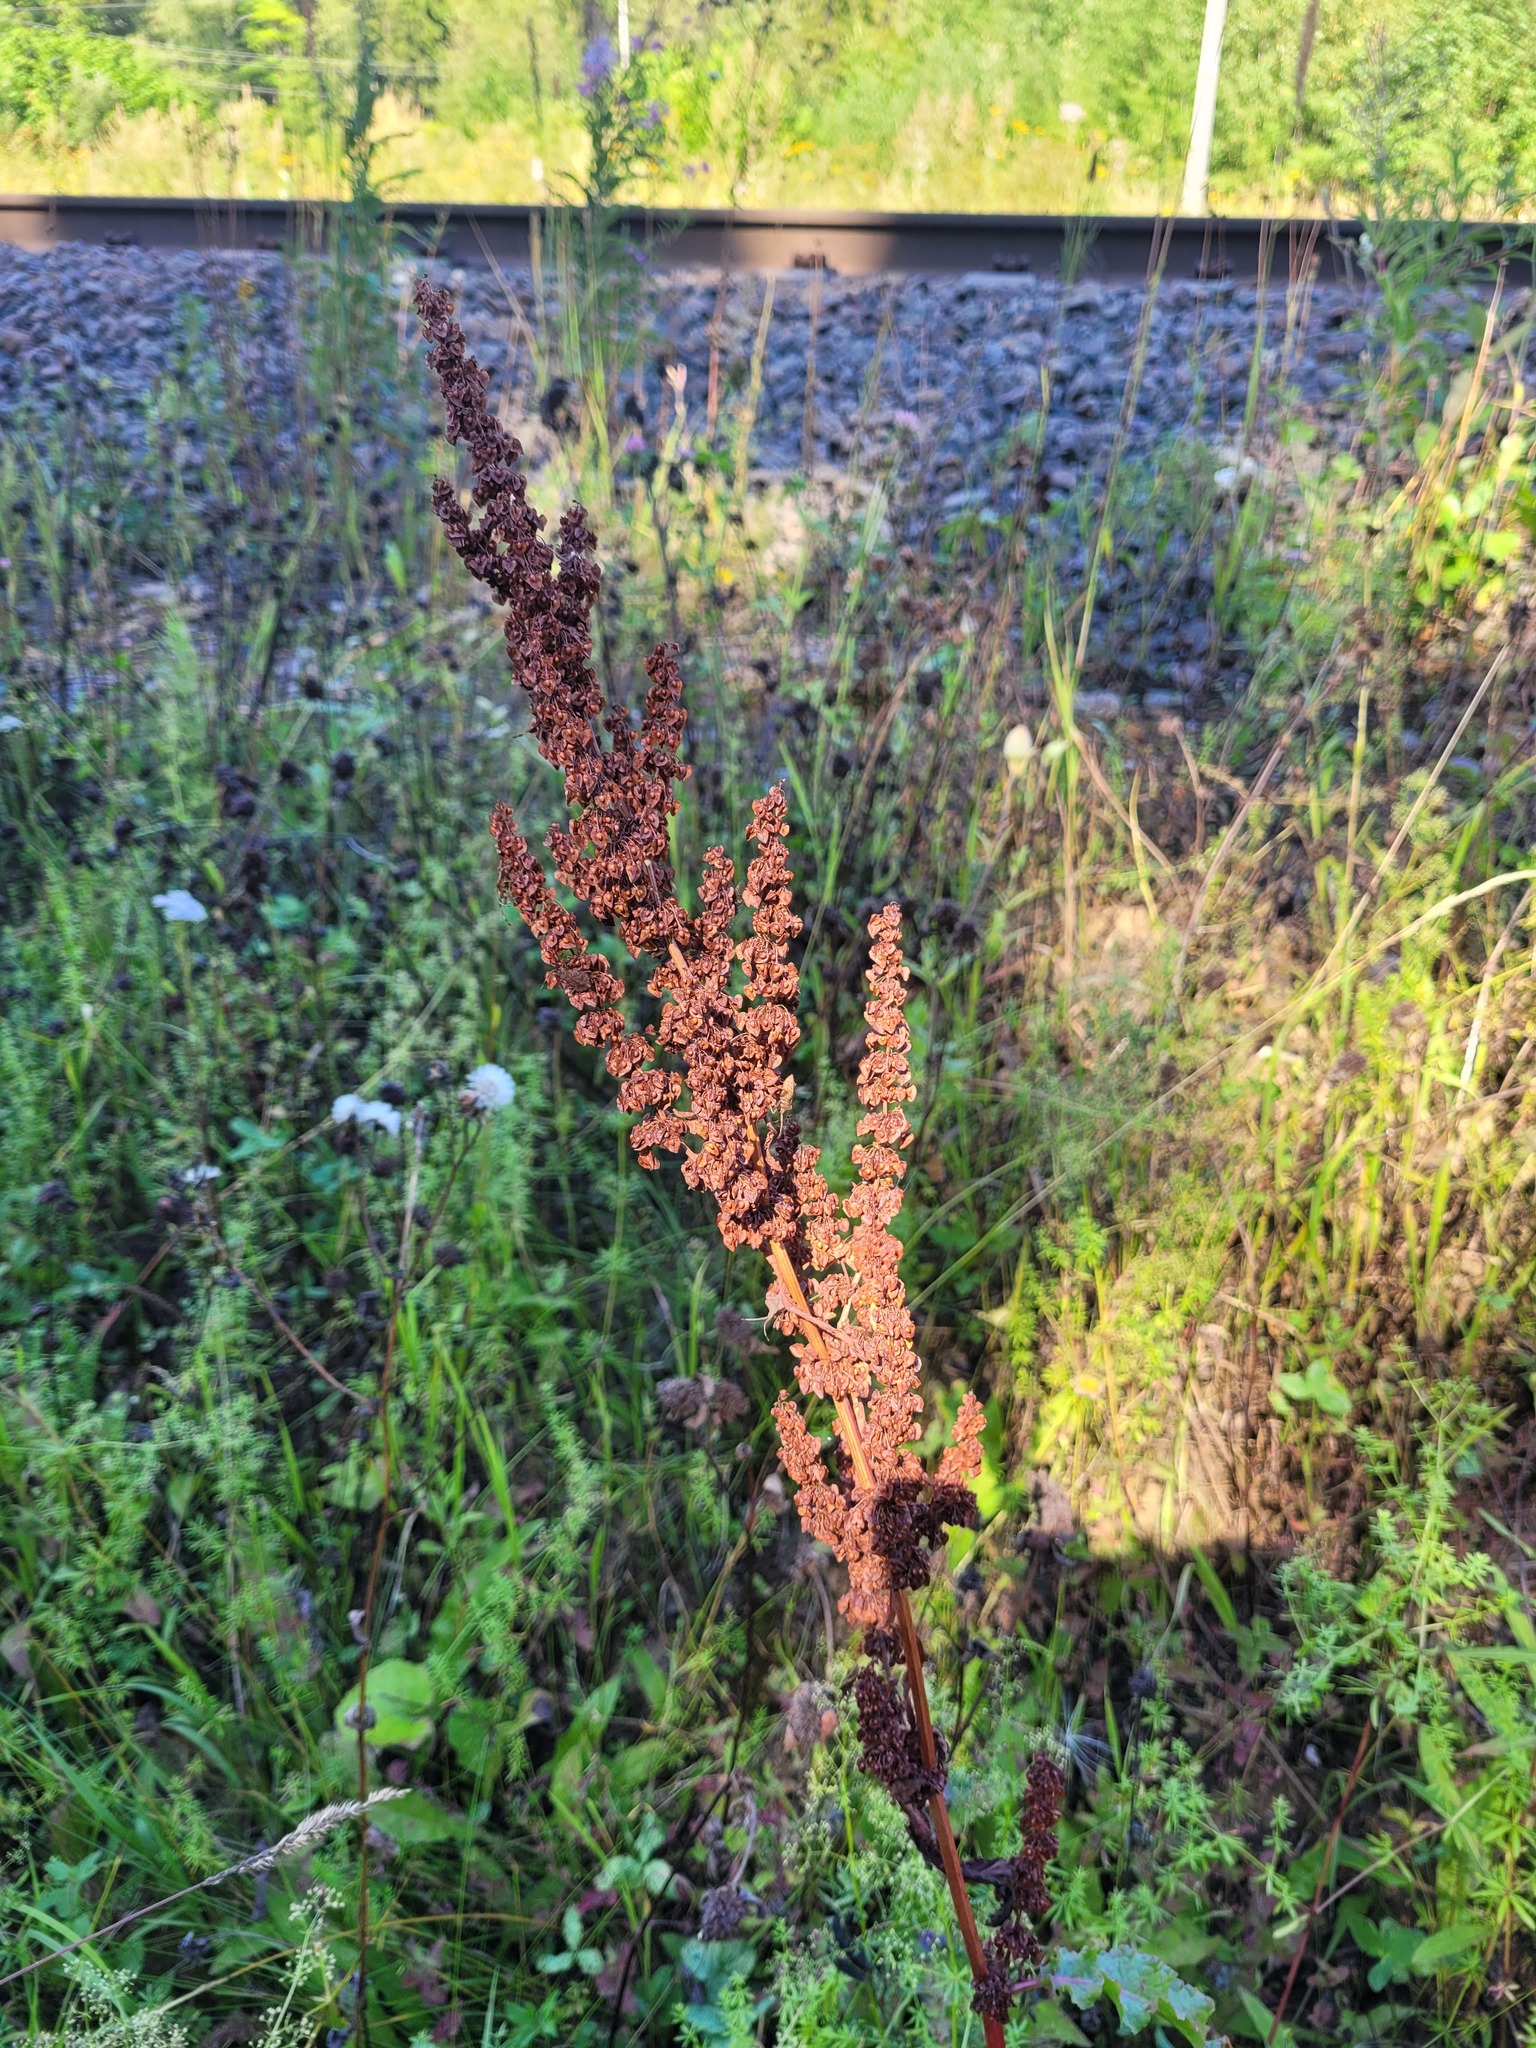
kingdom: Plantae
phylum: Tracheophyta
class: Magnoliopsida
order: Caryophyllales
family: Polygonaceae
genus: Rumex
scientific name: Rumex crispus
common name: Curled dock
